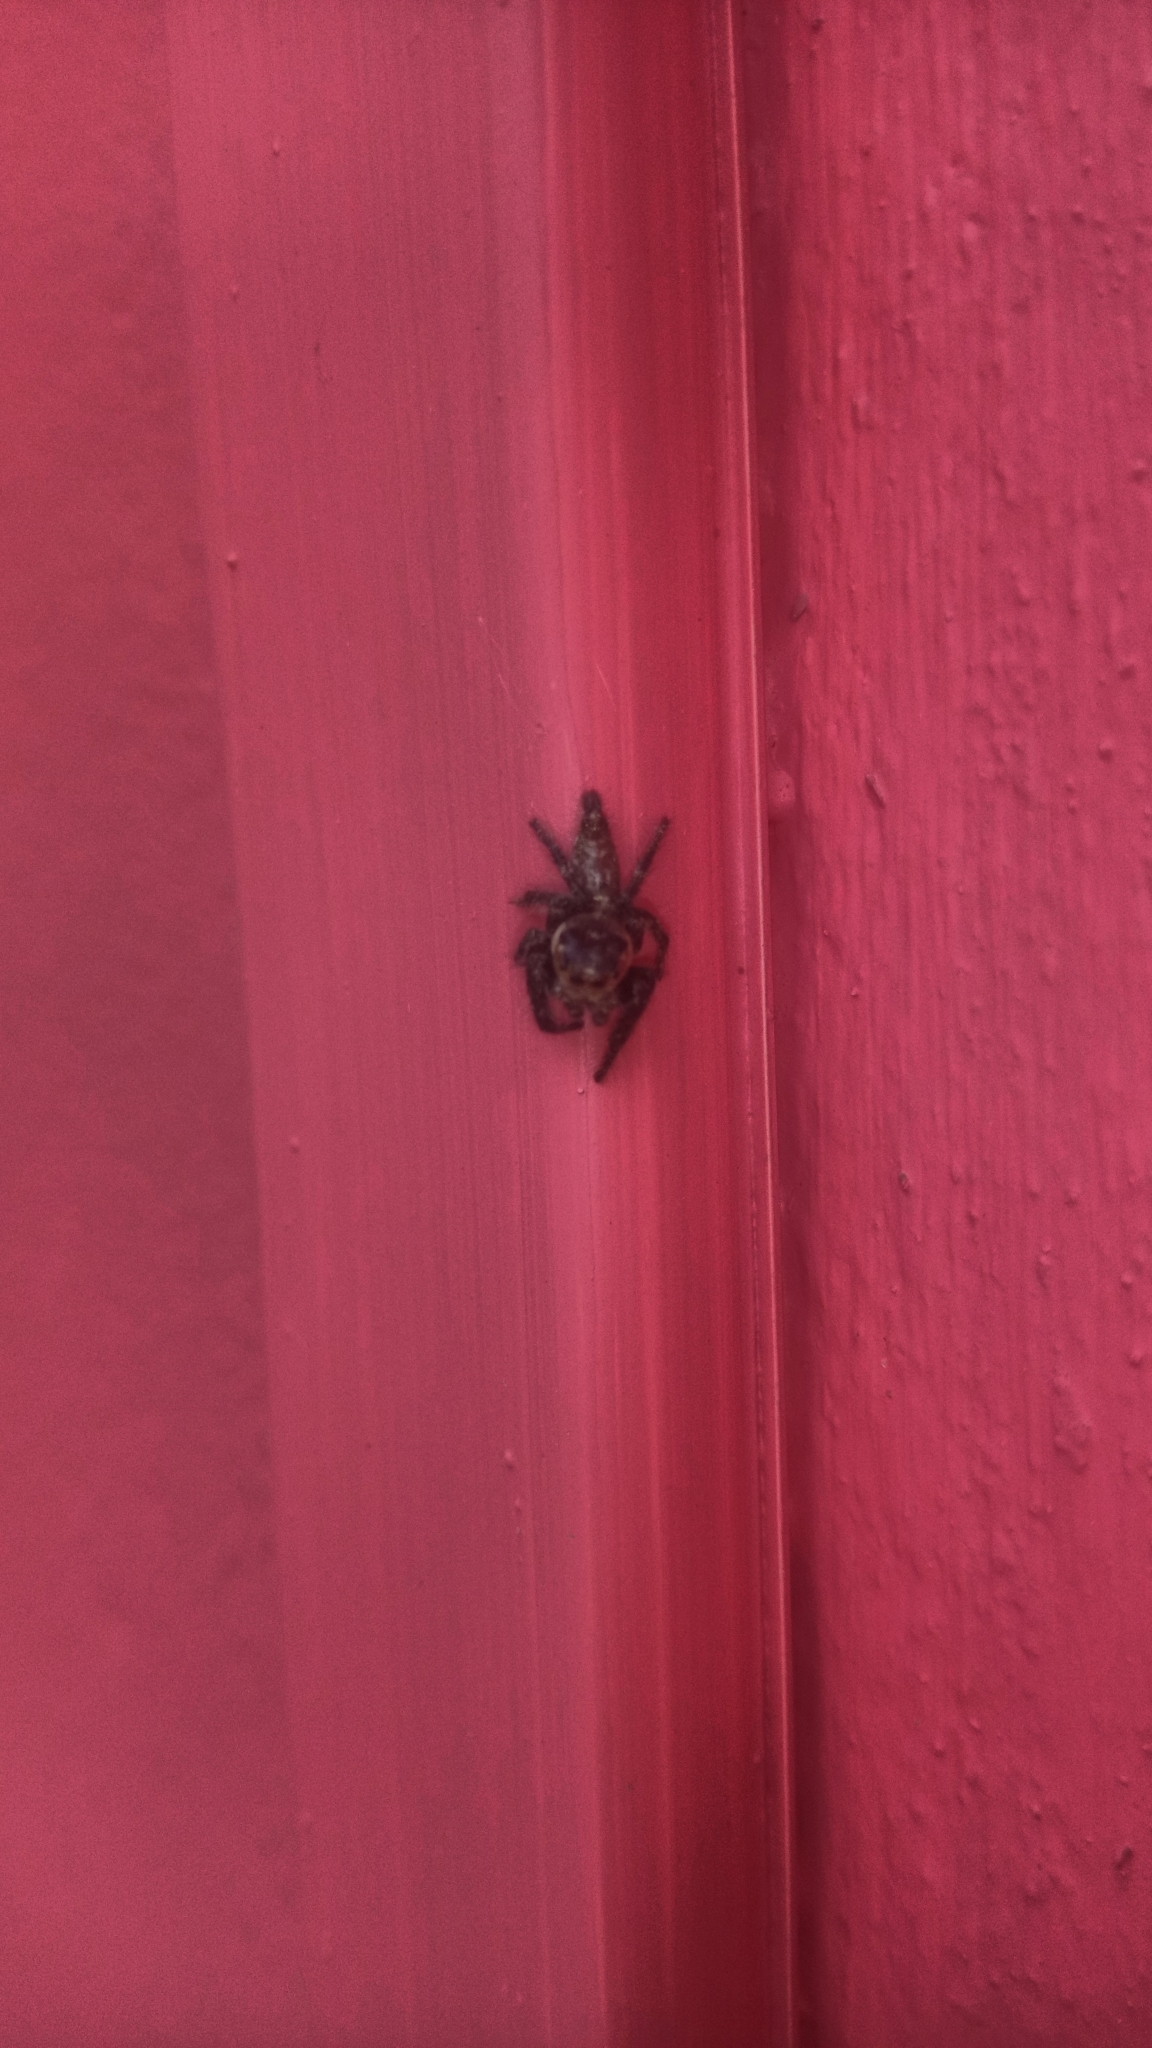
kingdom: Animalia
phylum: Arthropoda
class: Arachnida
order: Araneae
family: Salticidae
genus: Hyllus
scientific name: Hyllus semicupreus
